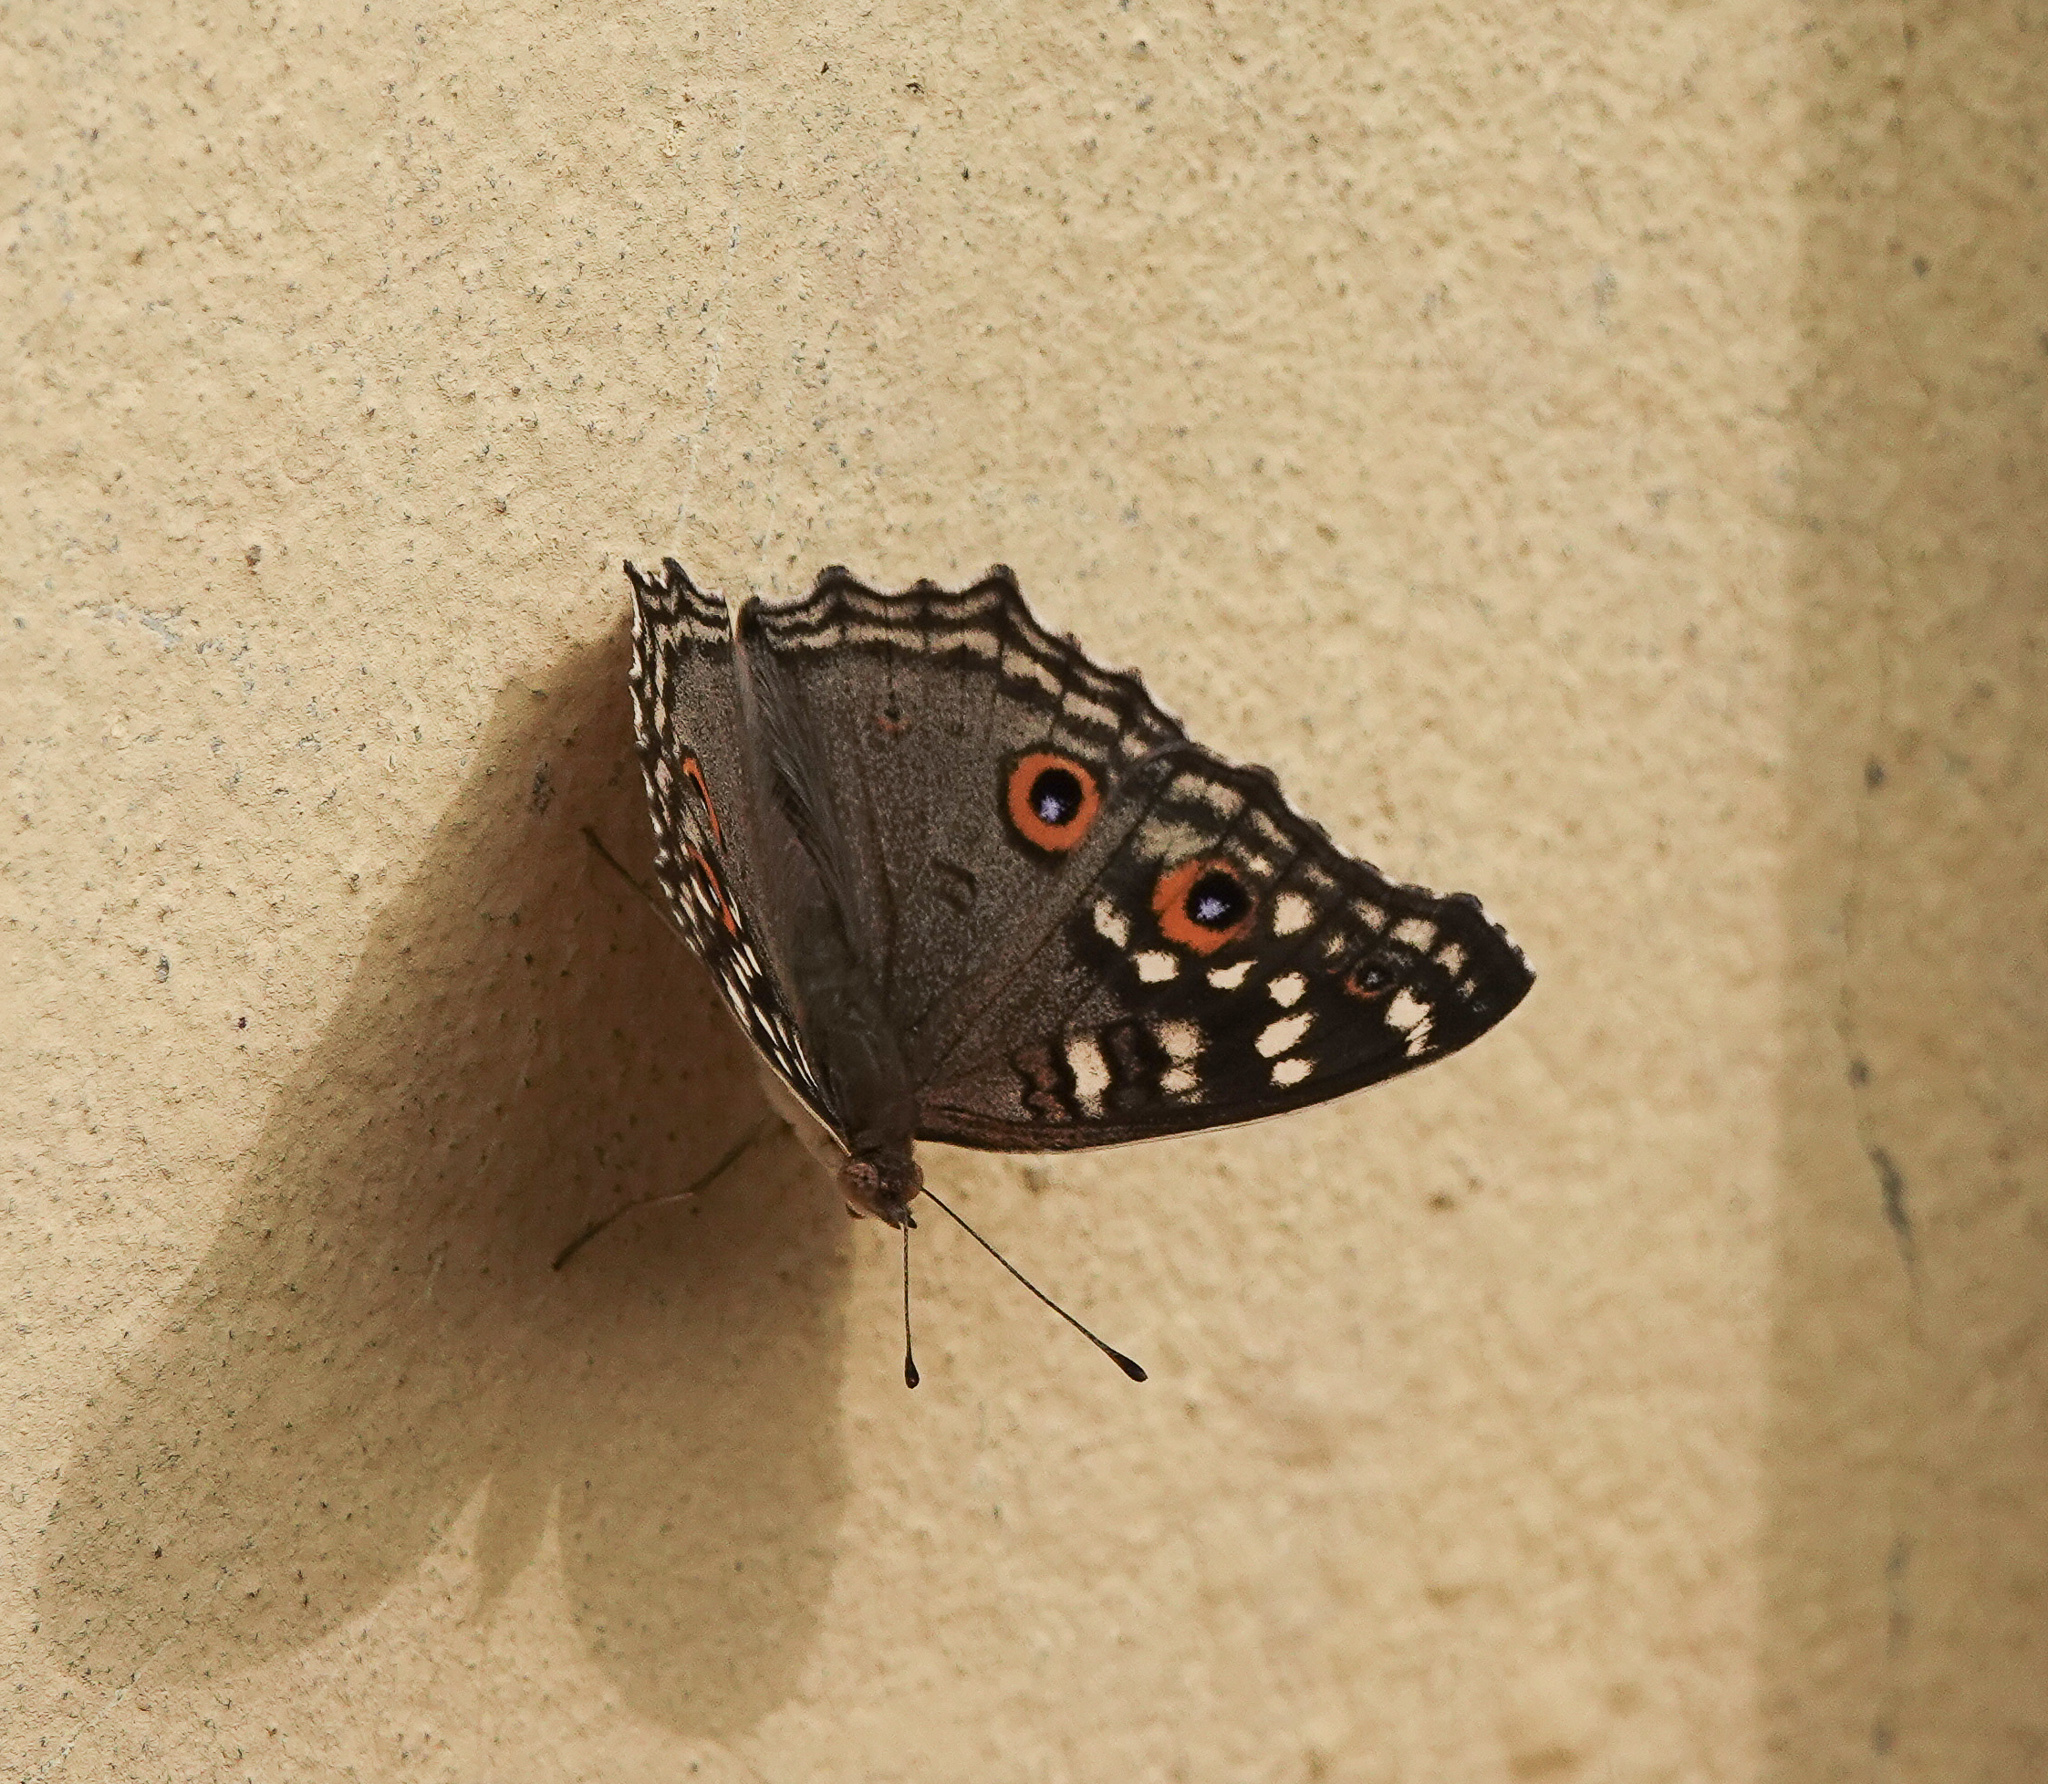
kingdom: Animalia
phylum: Arthropoda
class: Insecta
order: Lepidoptera
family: Nymphalidae
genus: Junonia
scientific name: Junonia lemonias
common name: Lemon pansy
